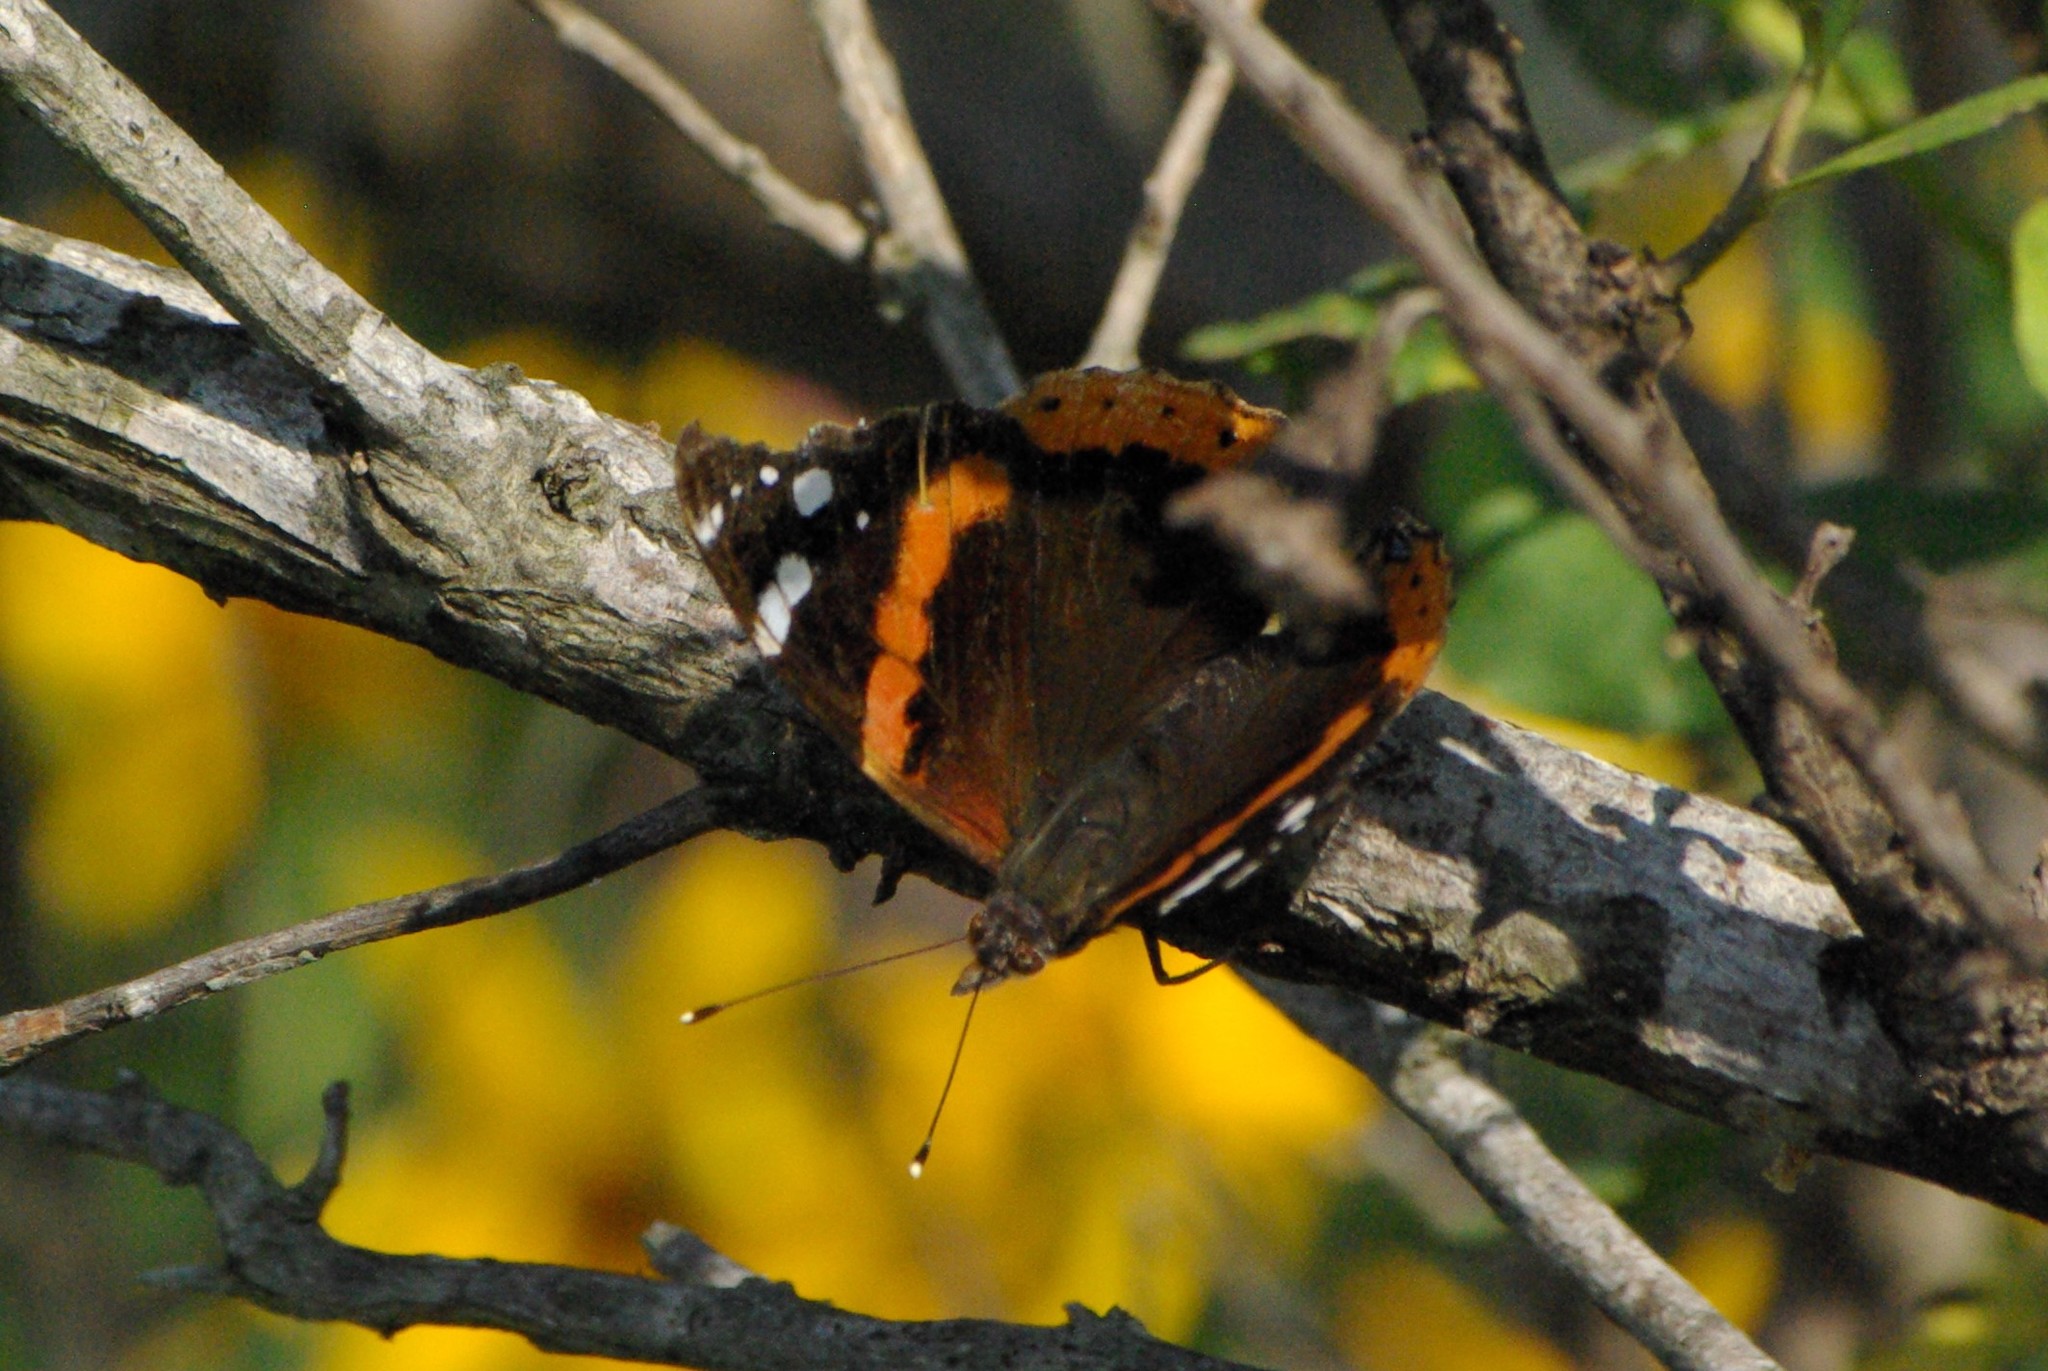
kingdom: Animalia
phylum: Arthropoda
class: Insecta
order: Lepidoptera
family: Nymphalidae
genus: Vanessa
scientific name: Vanessa atalanta
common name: Red admiral
